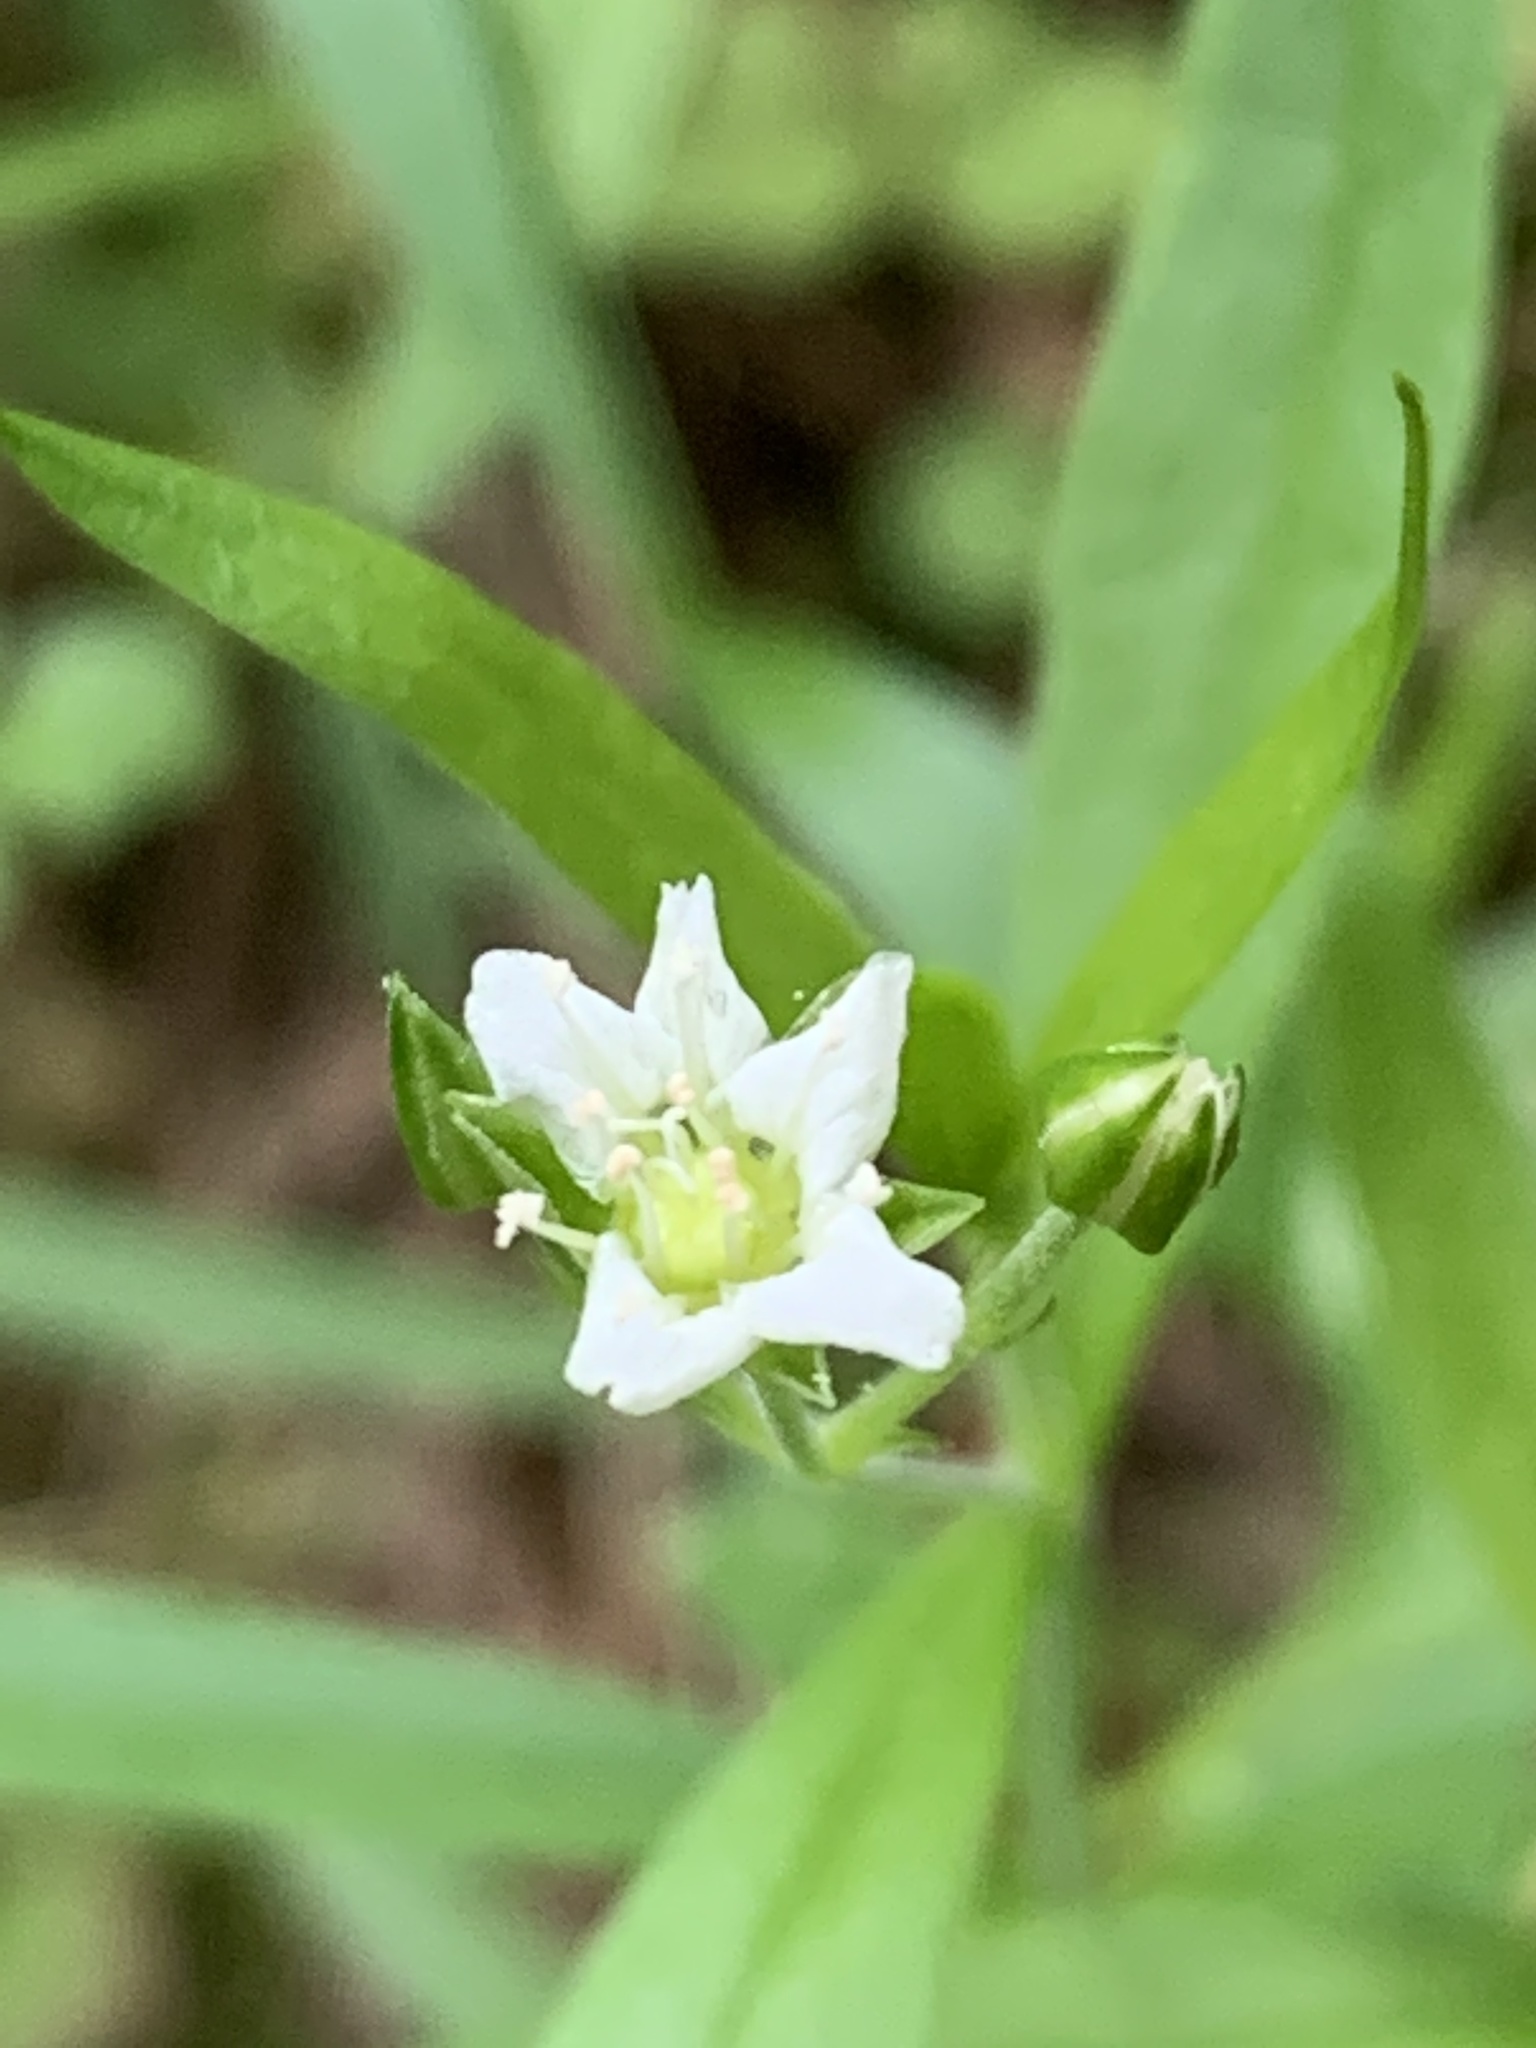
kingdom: Plantae
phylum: Tracheophyta
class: Magnoliopsida
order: Caryophyllales
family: Caryophyllaceae
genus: Moehringia
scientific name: Moehringia macrophylla
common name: Big-leaf sandwort
